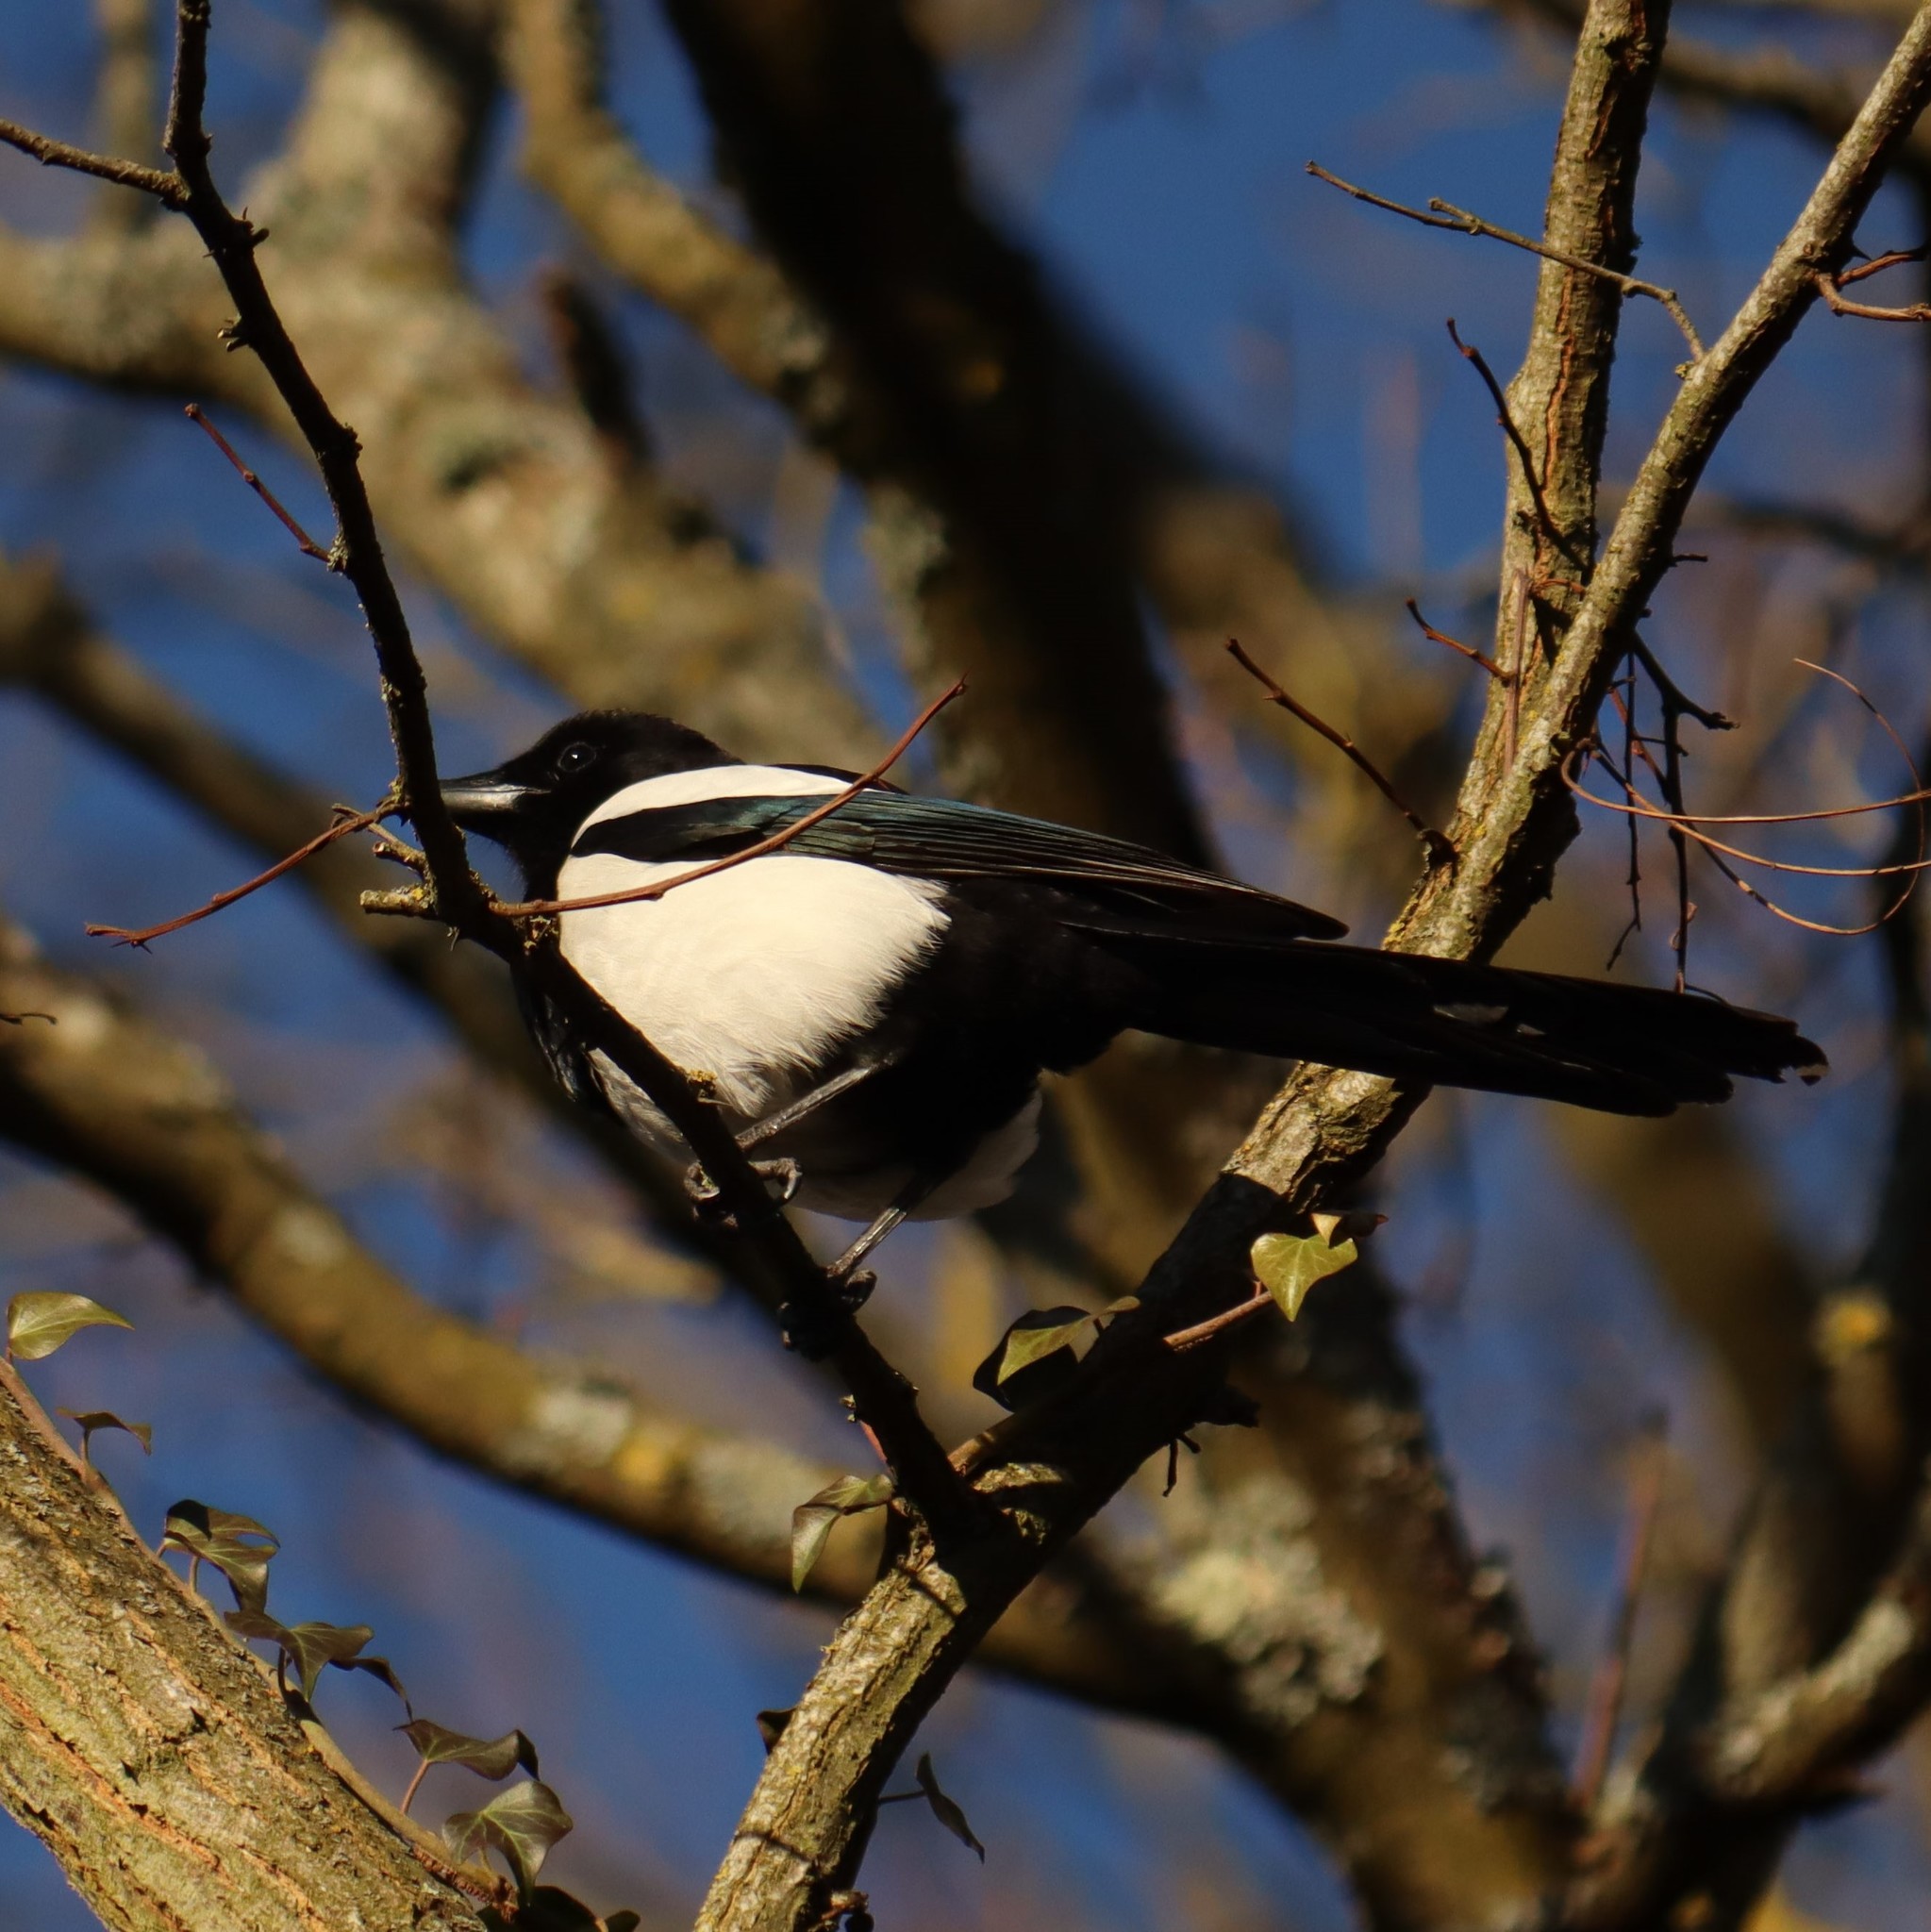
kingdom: Animalia
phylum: Chordata
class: Aves
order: Passeriformes
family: Corvidae
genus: Pica
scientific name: Pica pica
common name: Eurasian magpie
